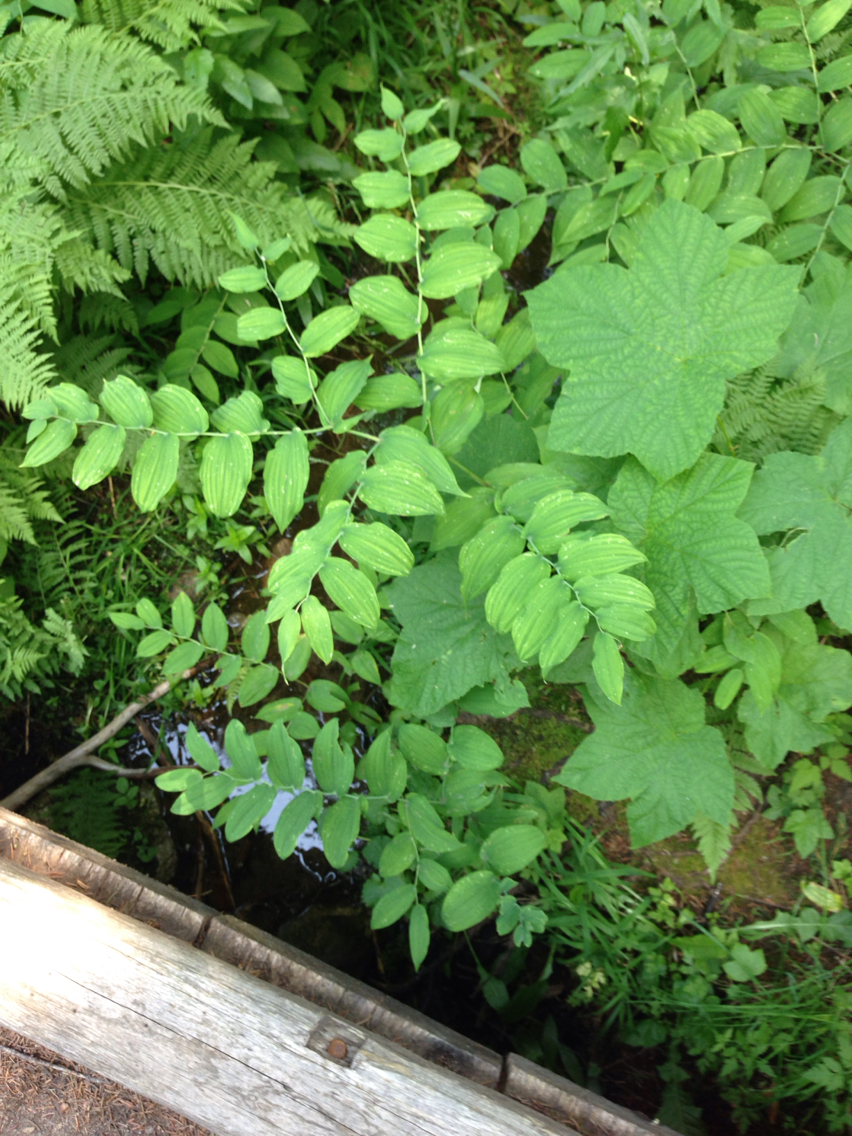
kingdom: Plantae
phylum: Tracheophyta
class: Liliopsida
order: Liliales
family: Liliaceae
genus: Streptopus
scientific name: Streptopus amplexifolius
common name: Clasp twisted stalk
